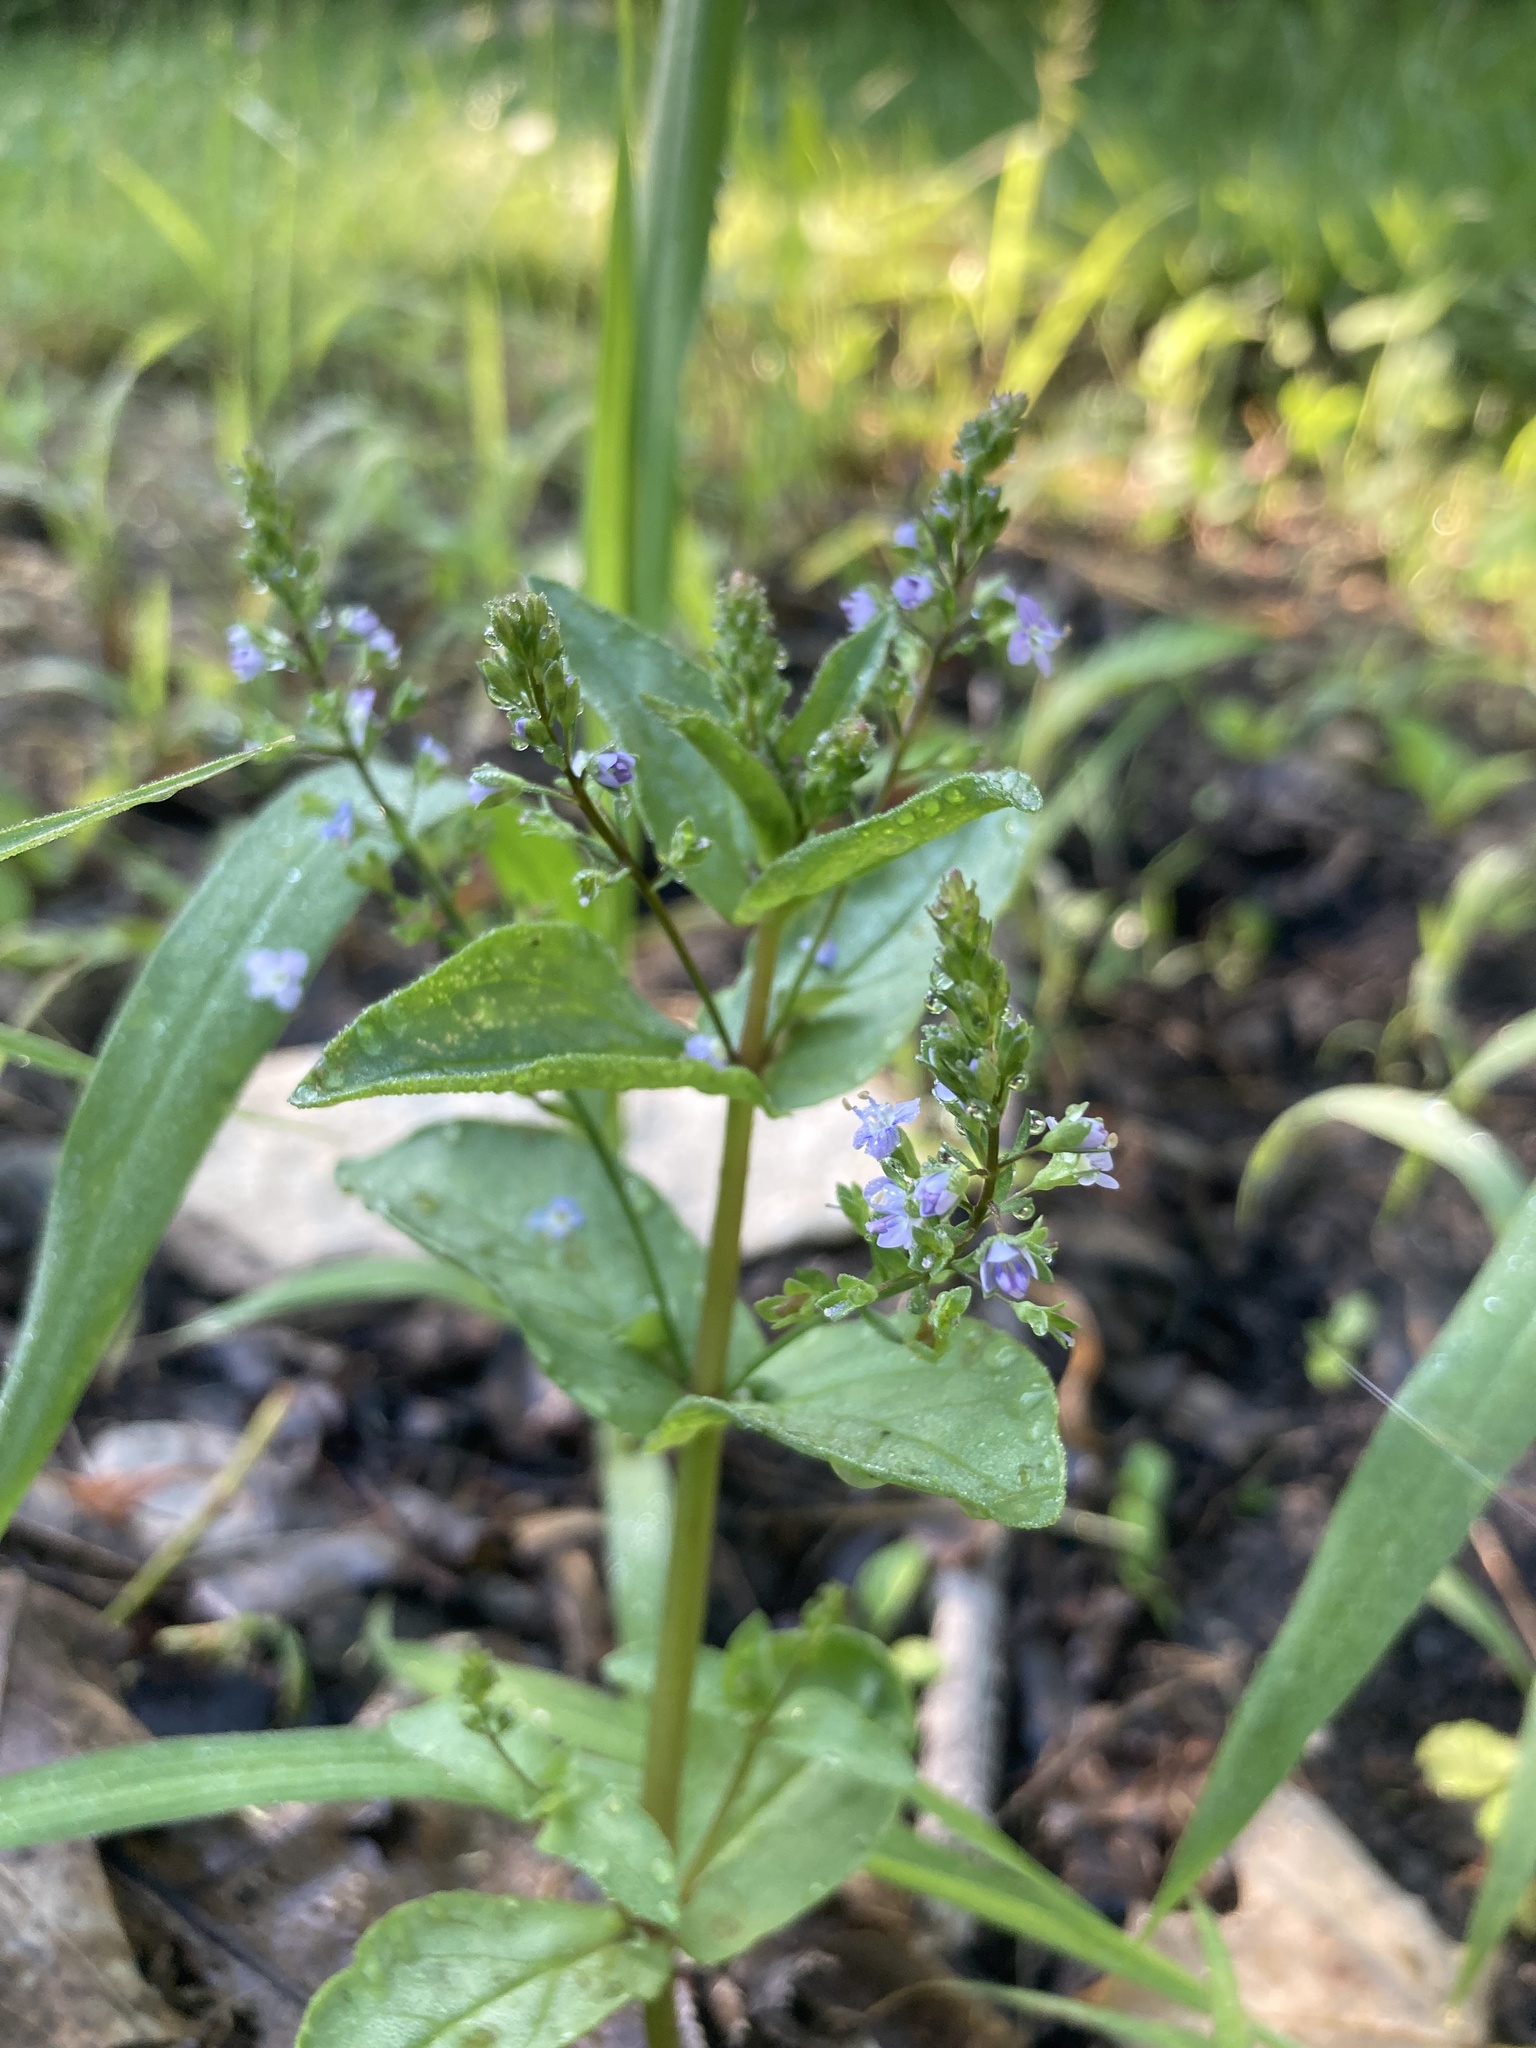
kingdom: Plantae
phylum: Tracheophyta
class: Magnoliopsida
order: Lamiales
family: Plantaginaceae
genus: Veronica
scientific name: Veronica anagallis-aquatica
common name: Water speedwell
